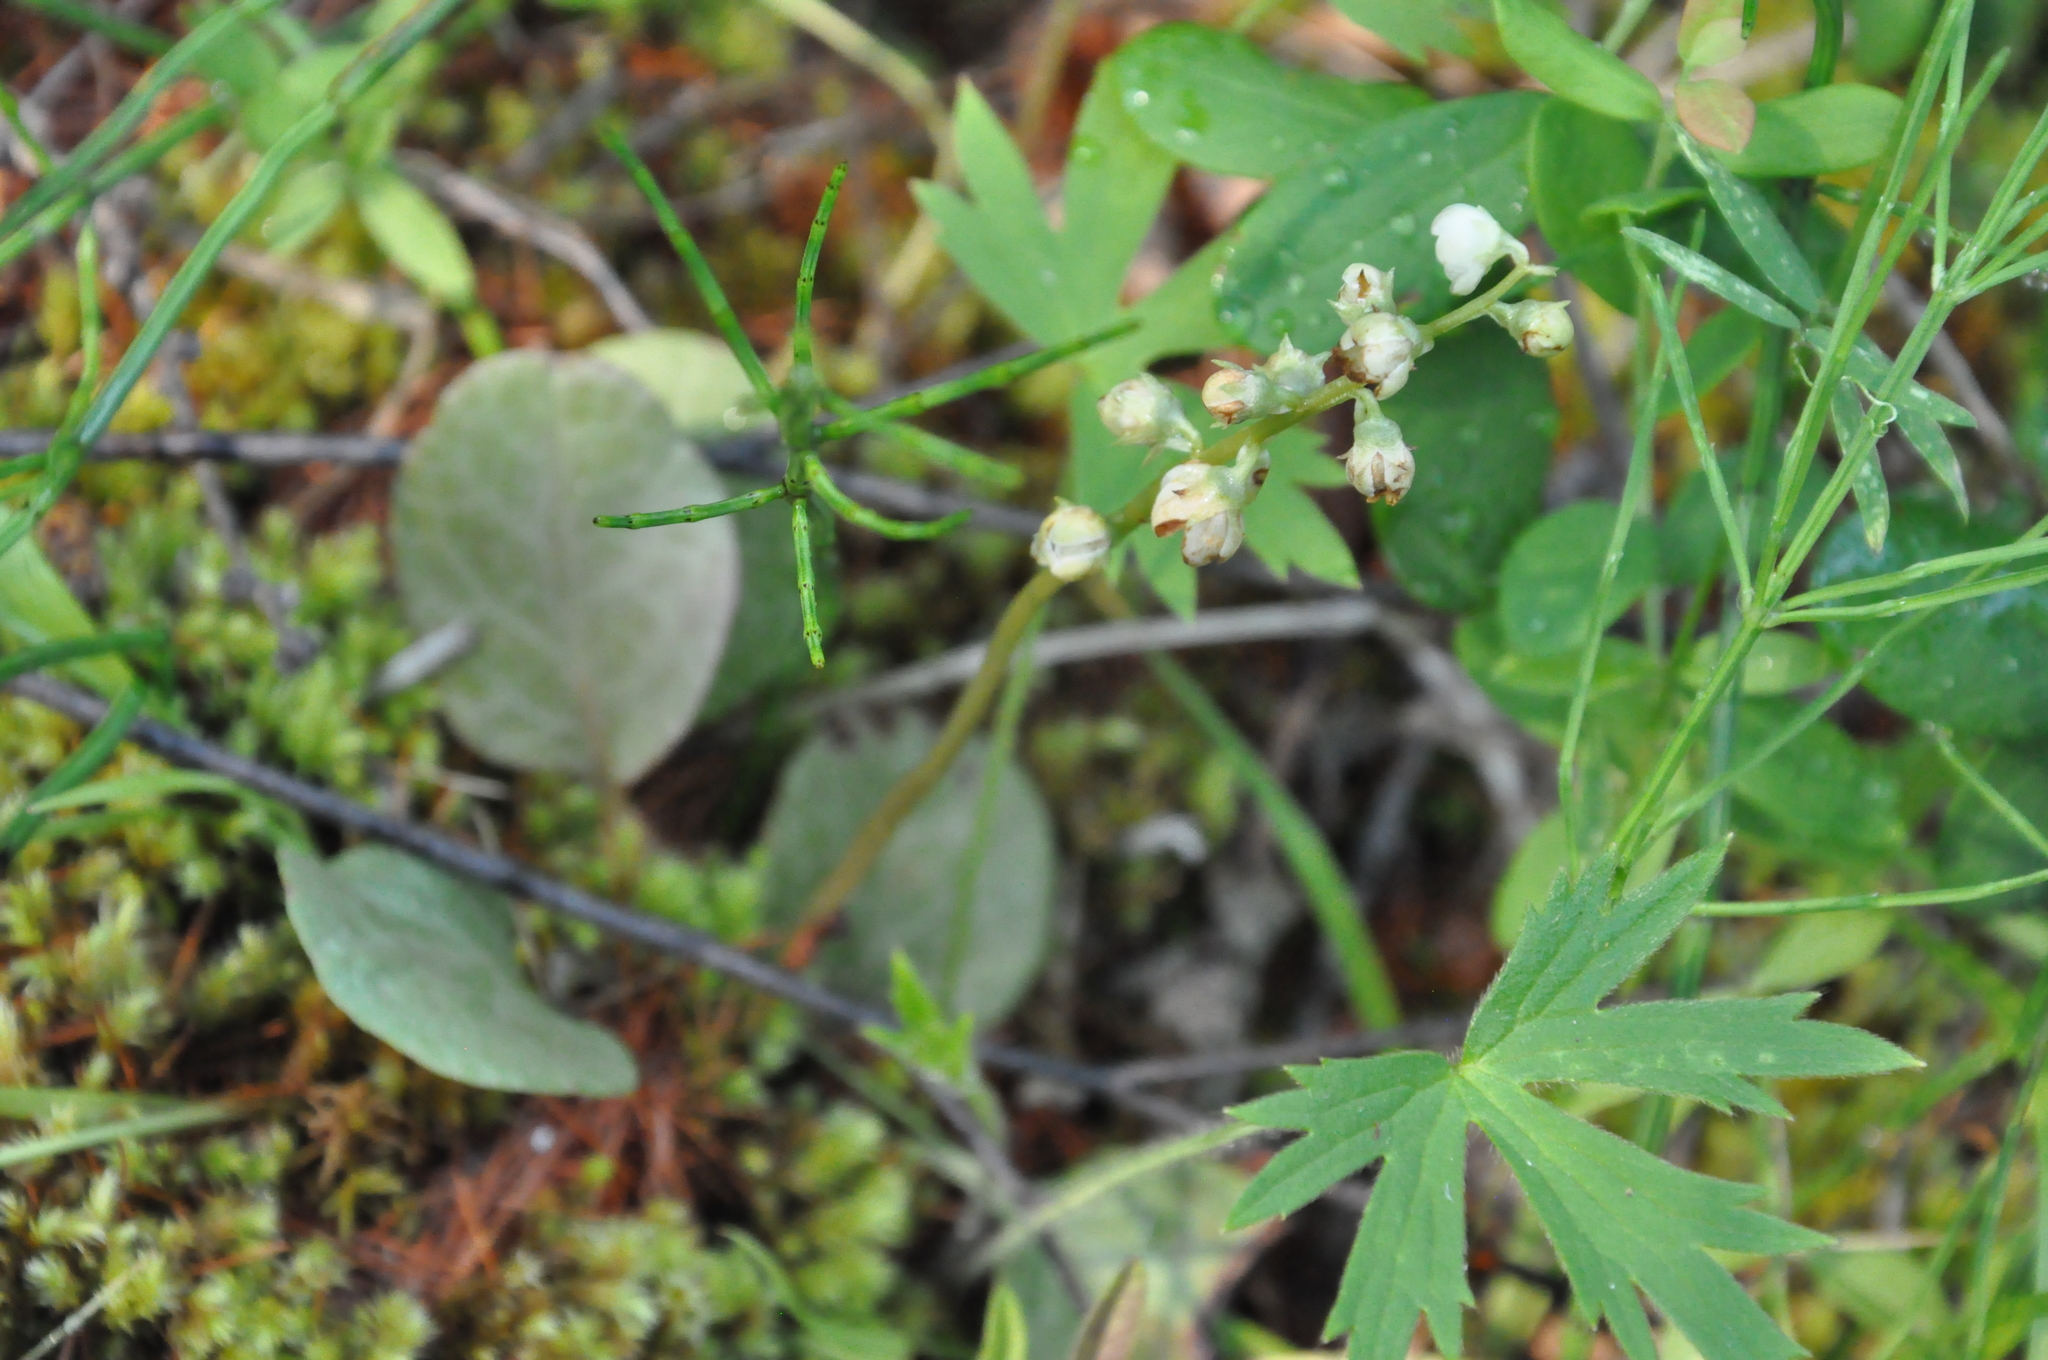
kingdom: Plantae
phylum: Tracheophyta
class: Magnoliopsida
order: Ericales
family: Ericaceae
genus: Pyrola
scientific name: Pyrola rotundifolia
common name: Round-leaved wintergreen
